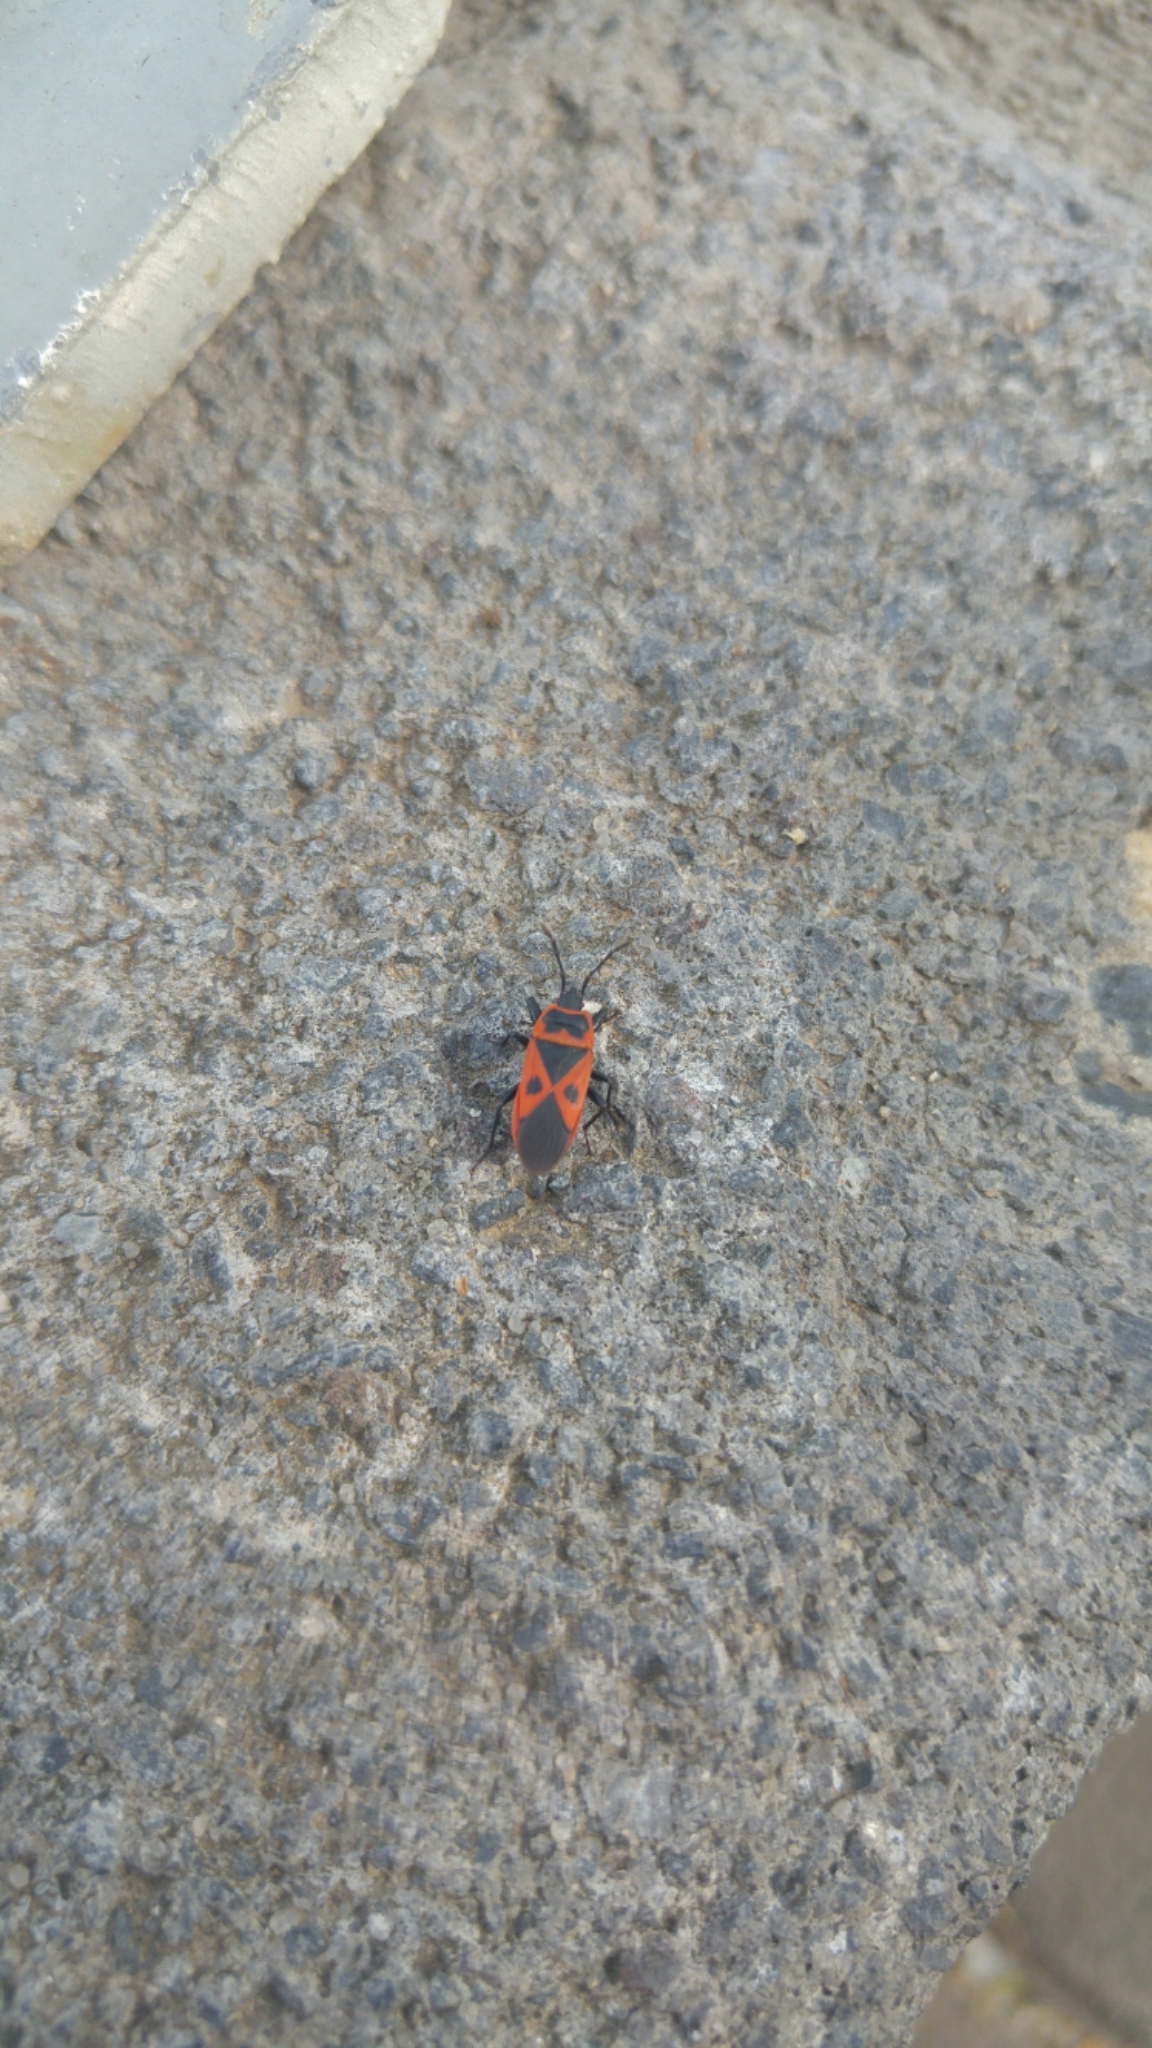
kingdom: Animalia
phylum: Arthropoda
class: Insecta
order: Hemiptera
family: Pyrrhocoridae
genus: Scantius
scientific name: Scantius aegyptius
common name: Red bug
